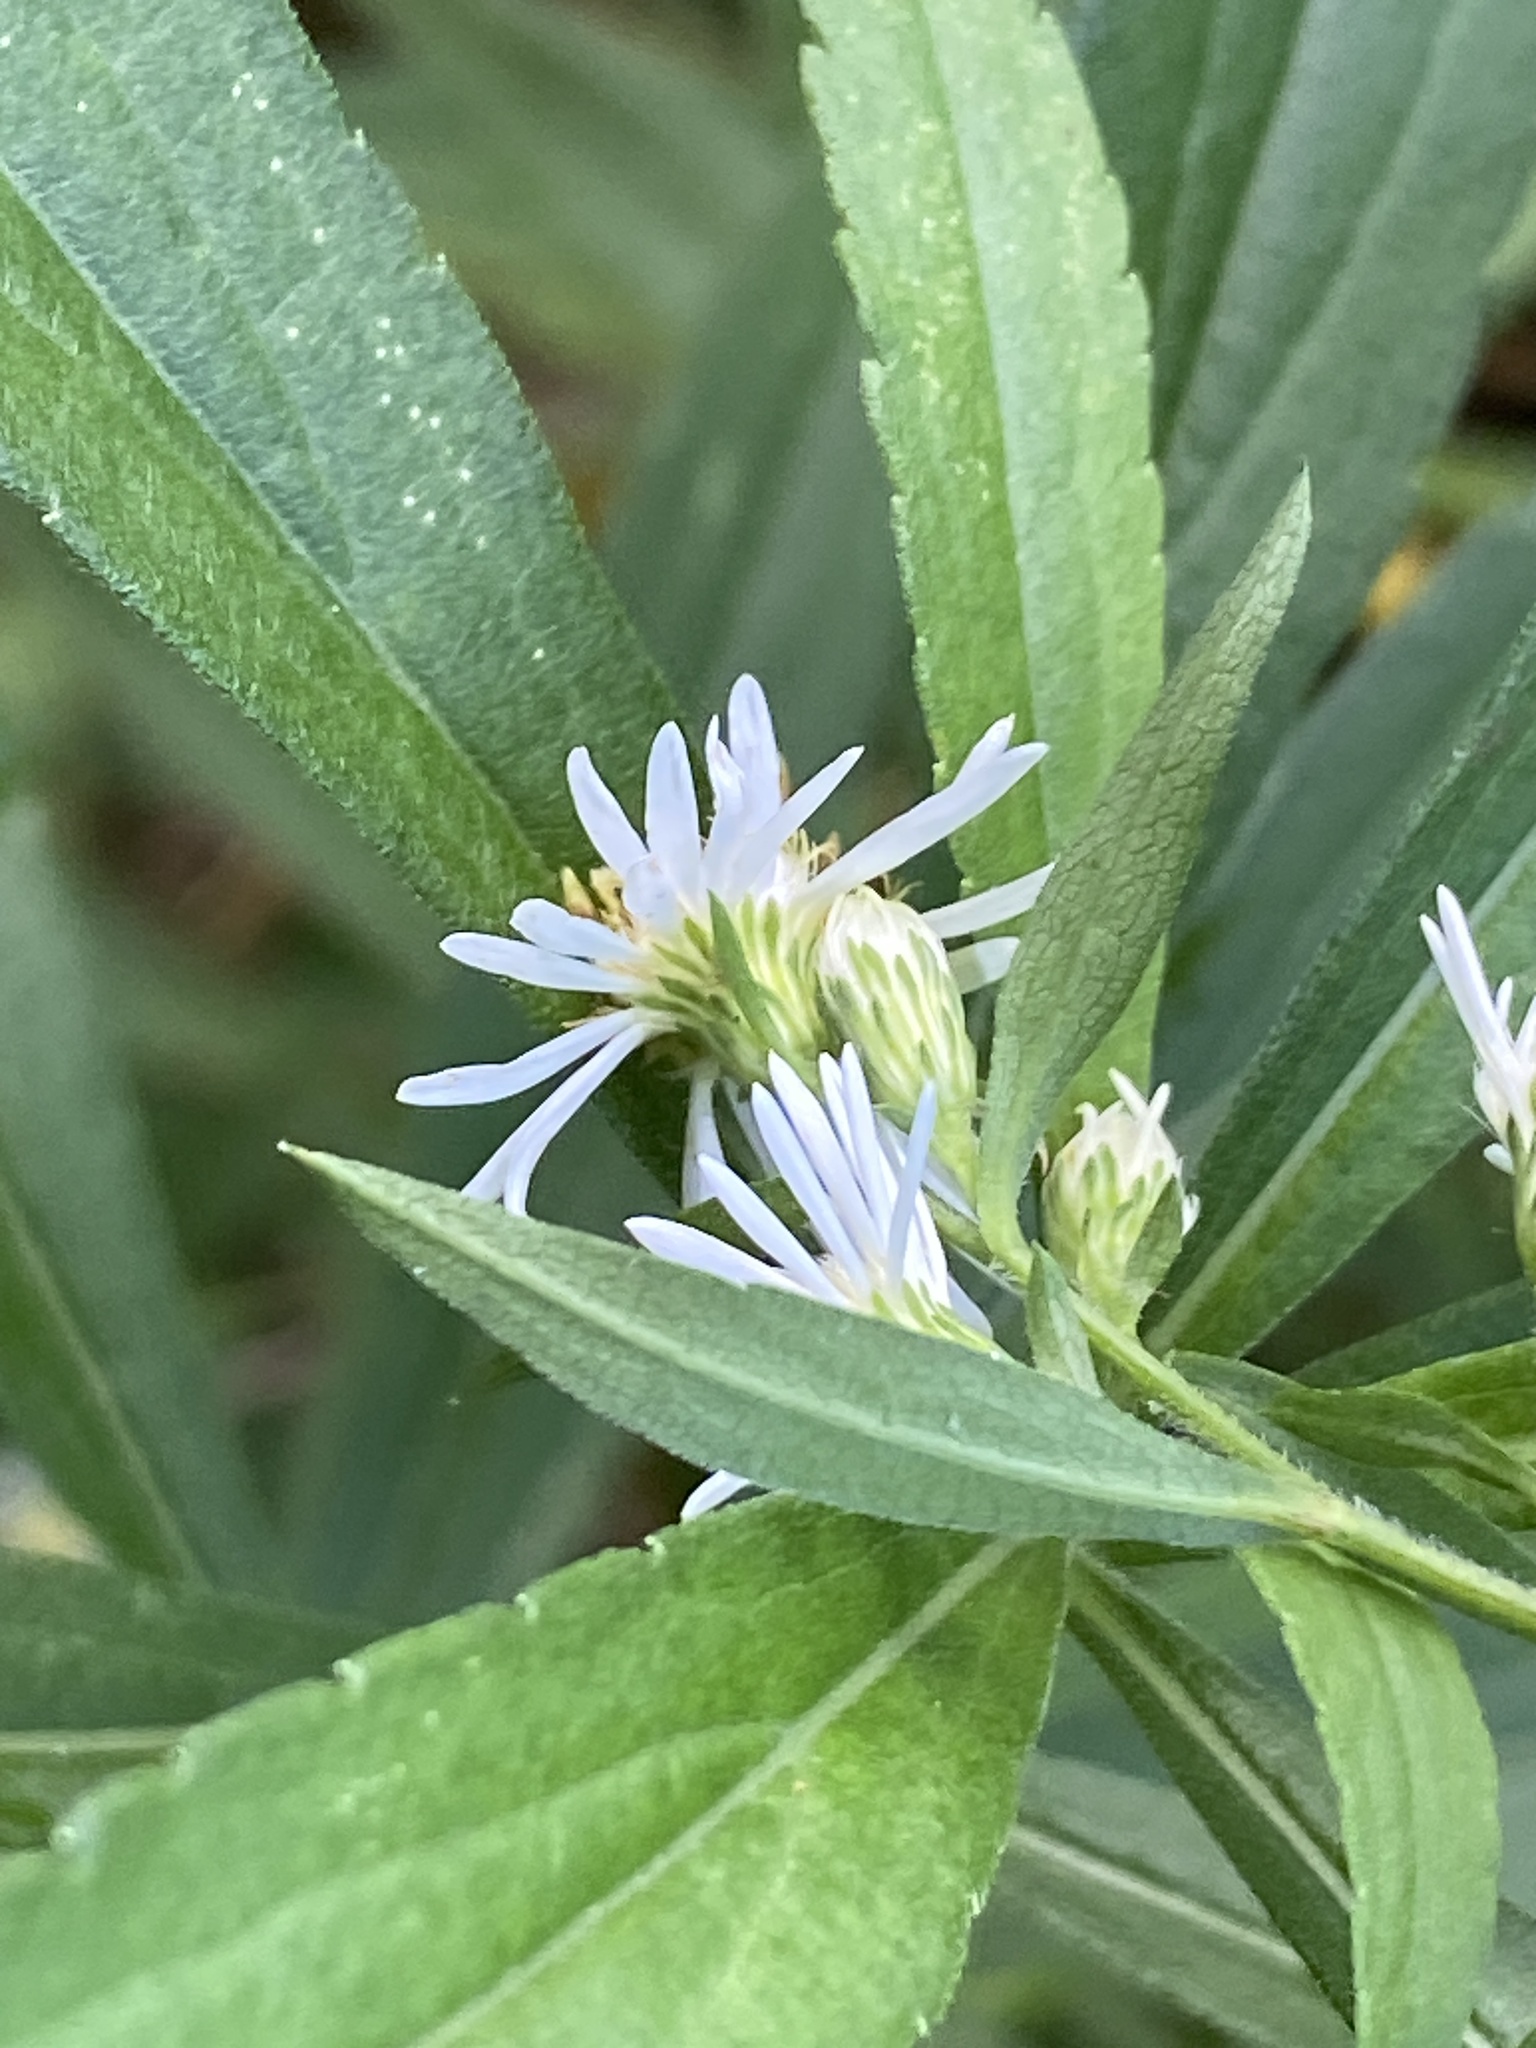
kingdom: Plantae
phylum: Tracheophyta
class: Magnoliopsida
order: Asterales
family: Asteraceae
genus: Symphyotrichum
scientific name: Symphyotrichum lanceolatum
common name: Panicled aster
